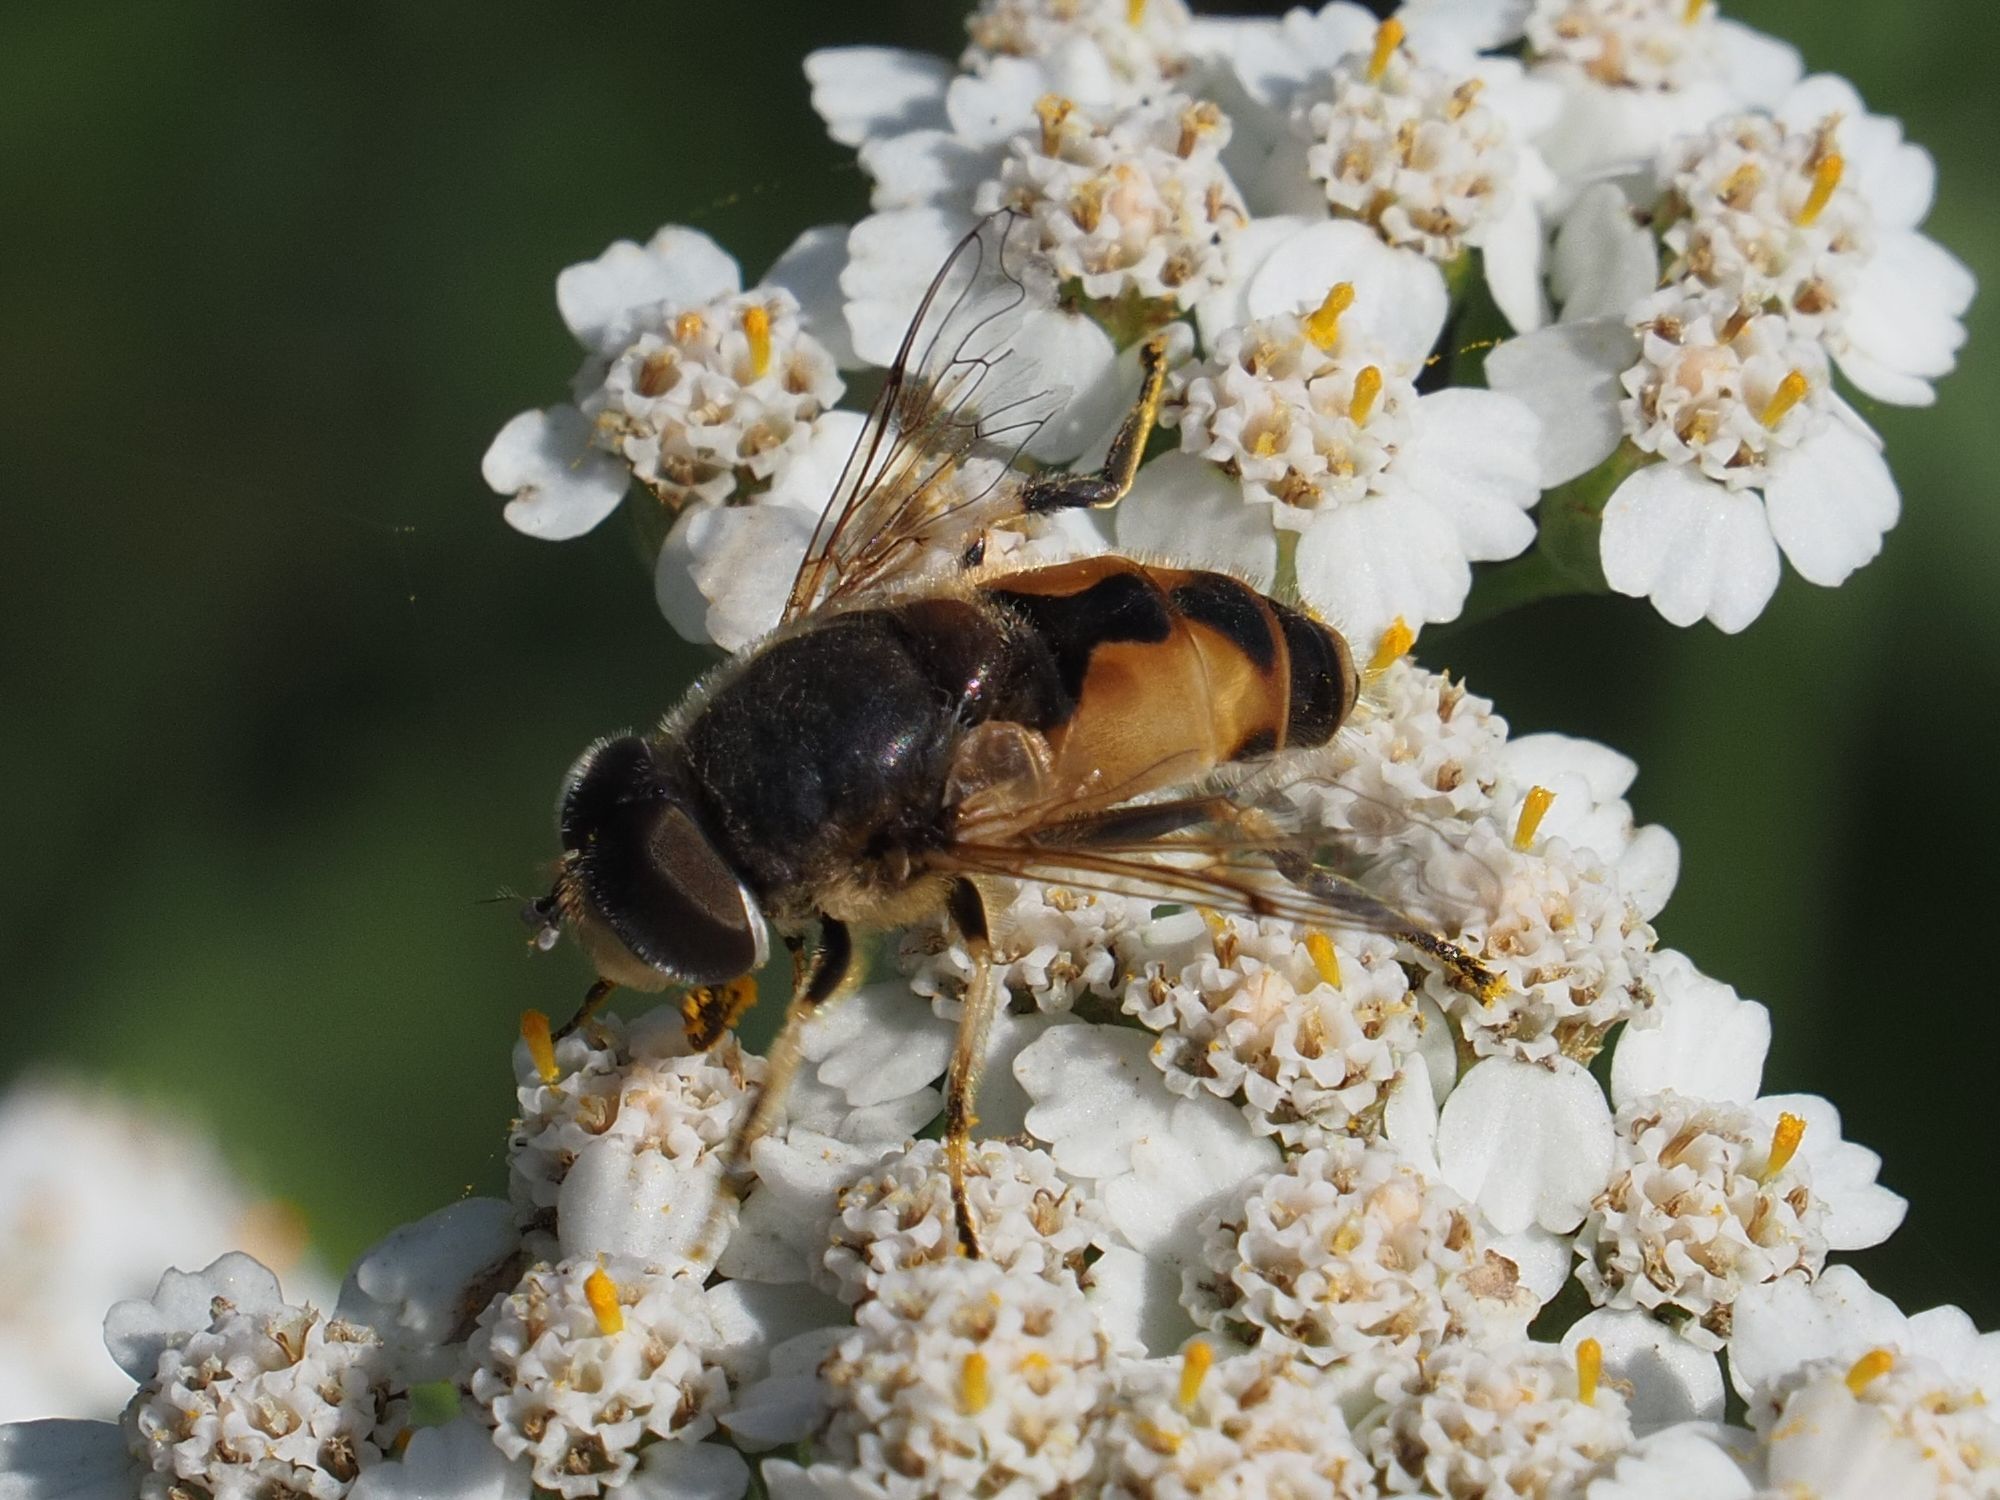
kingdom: Animalia
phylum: Arthropoda
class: Insecta
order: Diptera
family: Syrphidae
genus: Eristalis
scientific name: Eristalis arbustorum
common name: Hover fly
